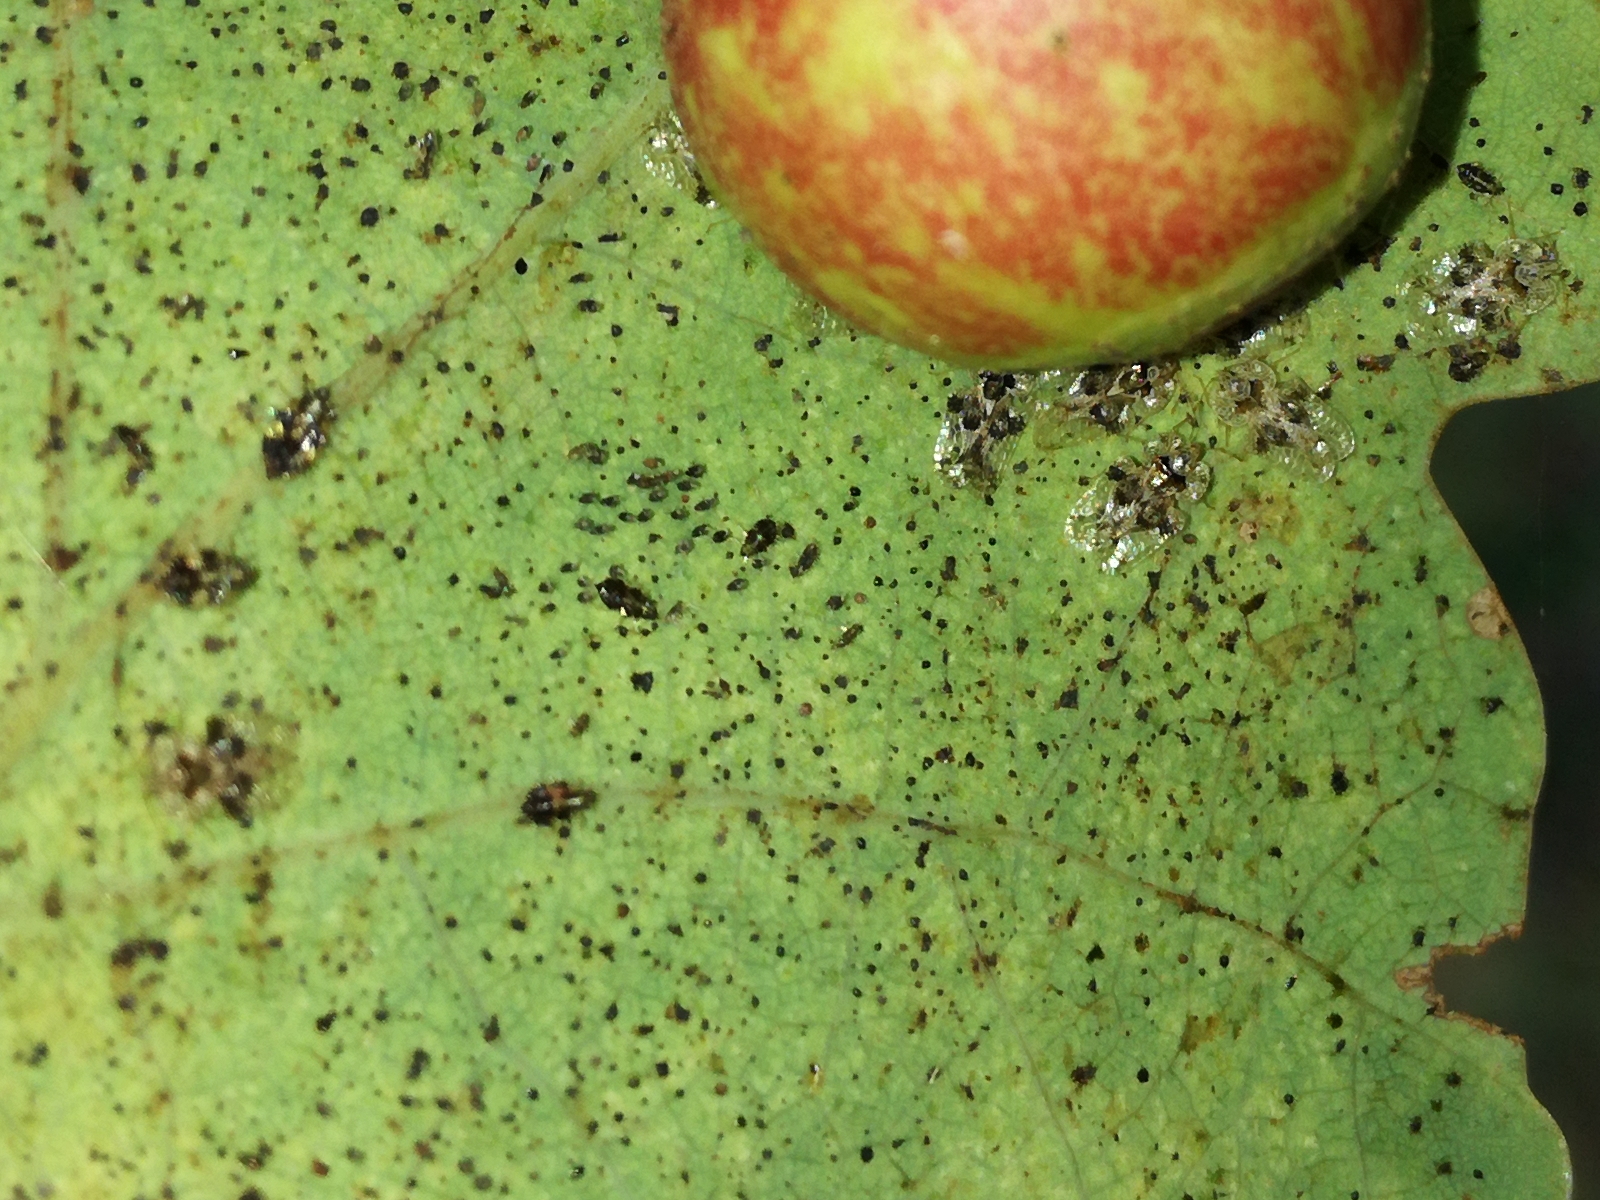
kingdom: Animalia
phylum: Arthropoda
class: Insecta
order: Hemiptera
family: Tingidae
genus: Corythucha
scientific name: Corythucha arcuata
